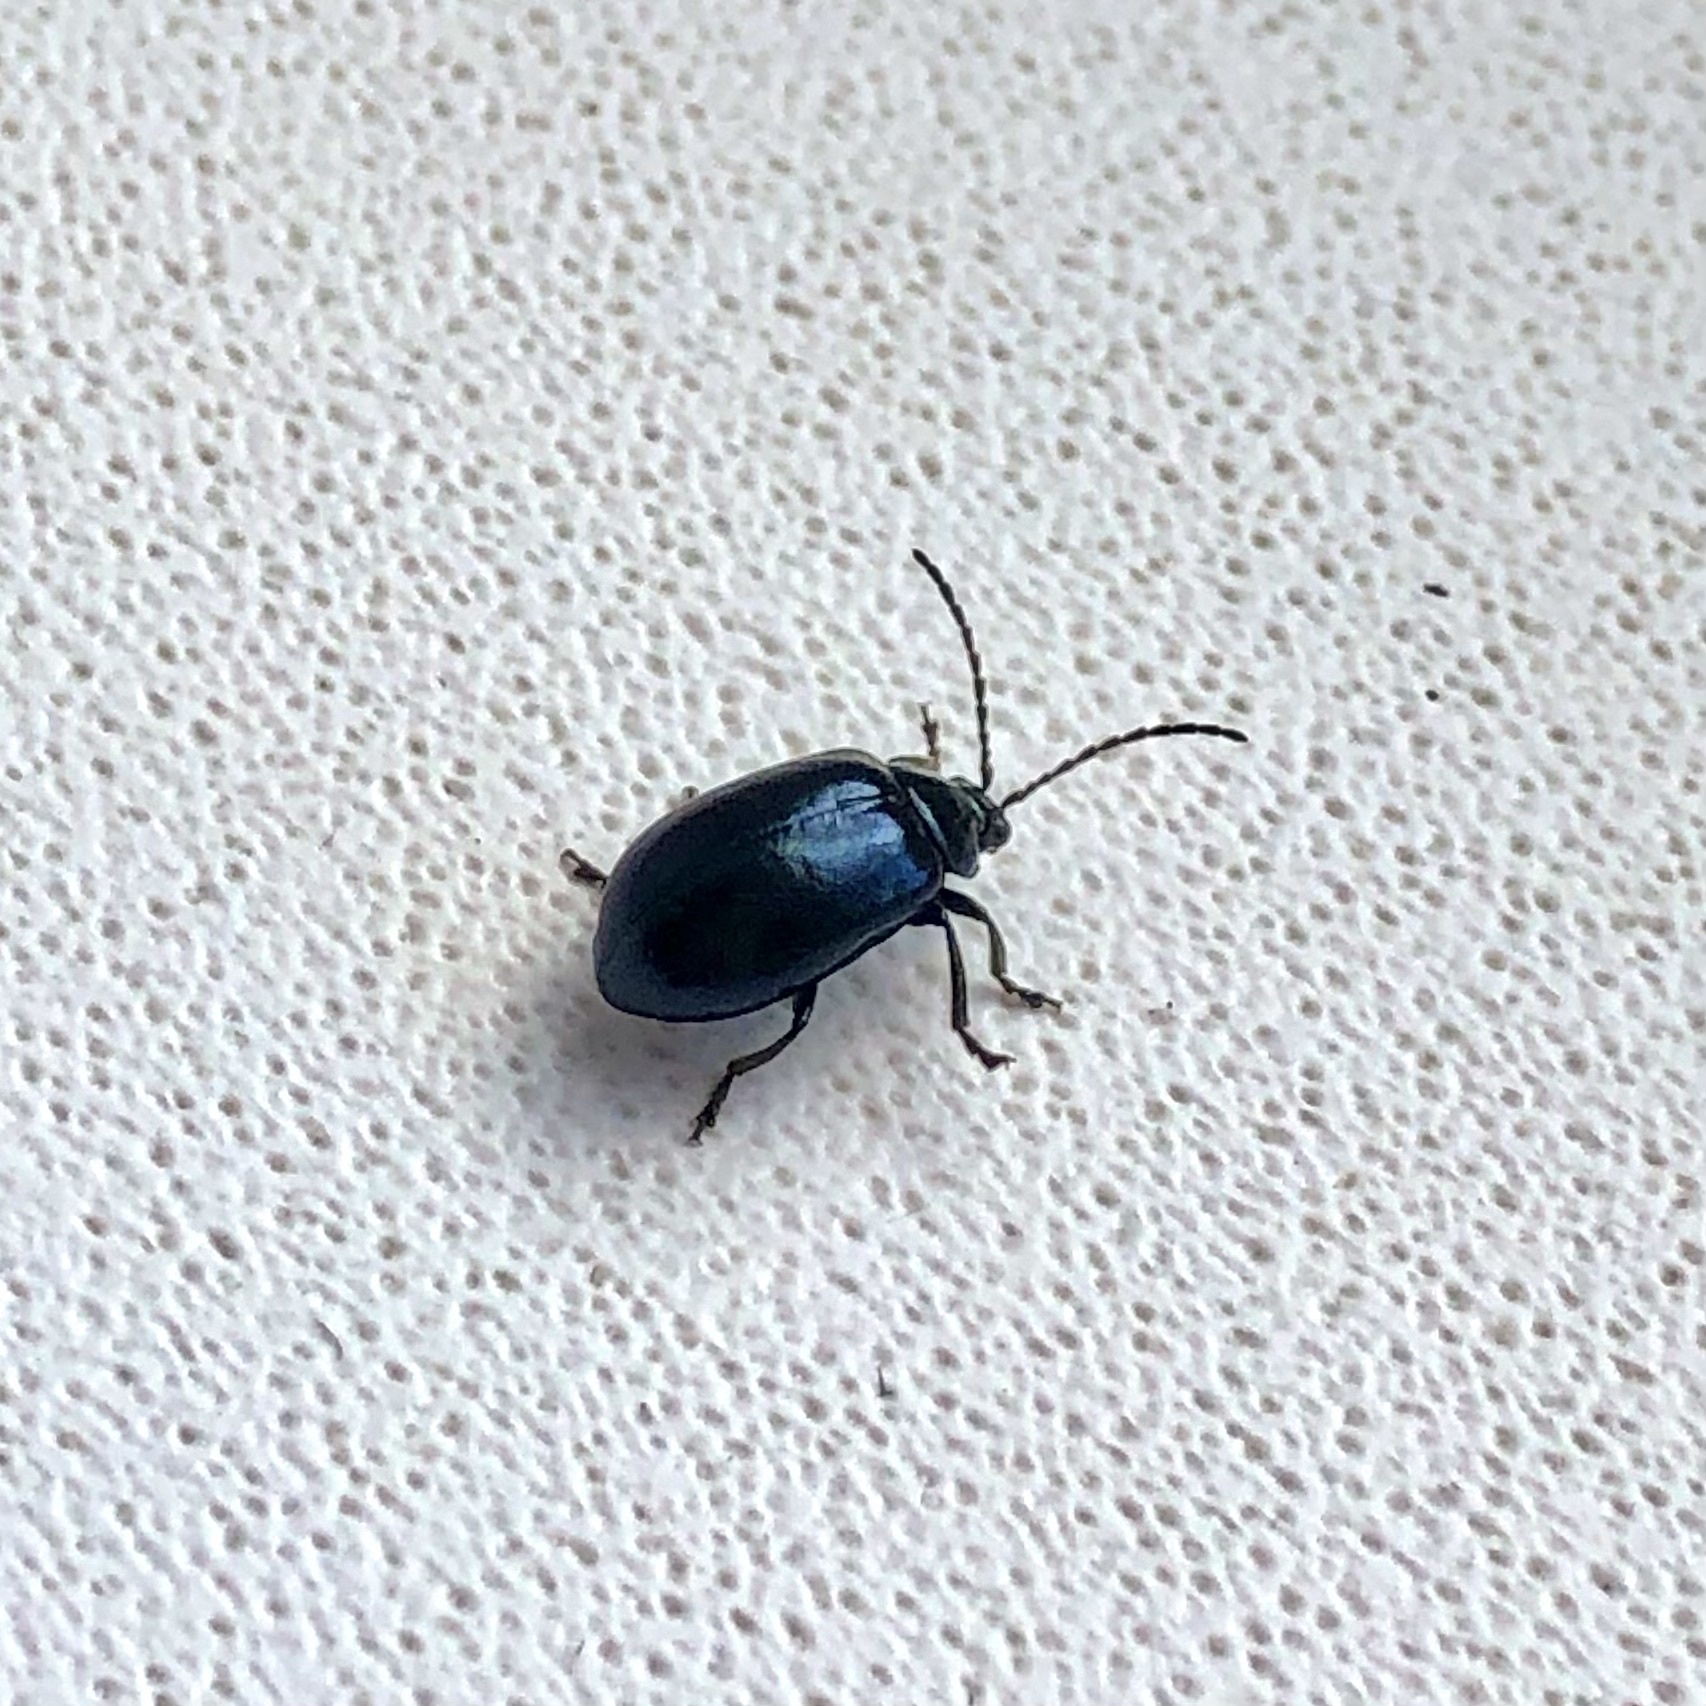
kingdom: Animalia
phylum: Arthropoda
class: Insecta
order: Coleoptera
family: Chrysomelidae
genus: Agelastica
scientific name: Agelastica alni
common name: Alder leaf beetle
